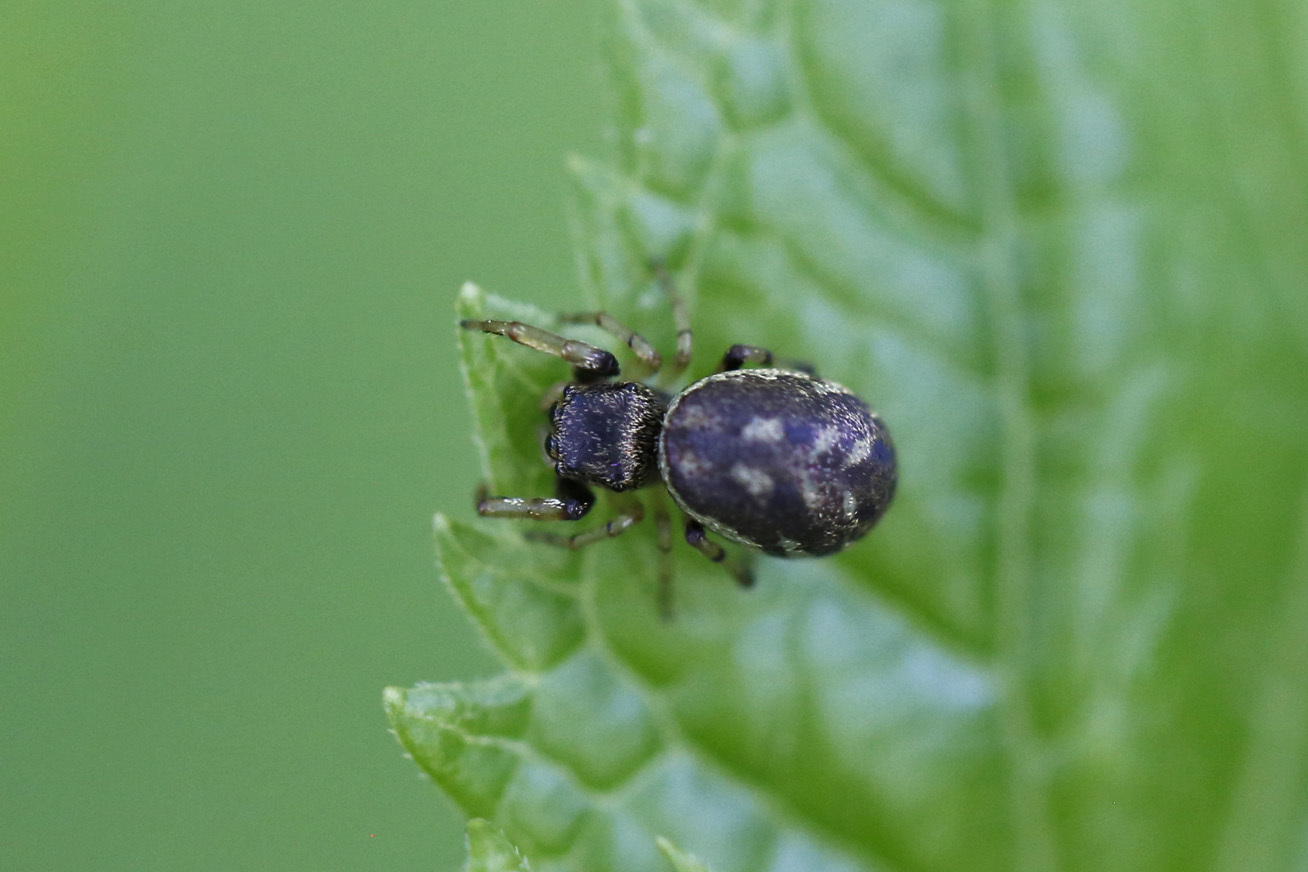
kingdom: Animalia
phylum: Arthropoda
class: Arachnida
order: Araneae
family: Salticidae
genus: Zygoballus
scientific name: Zygoballus rufipes
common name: Jumping spiders
